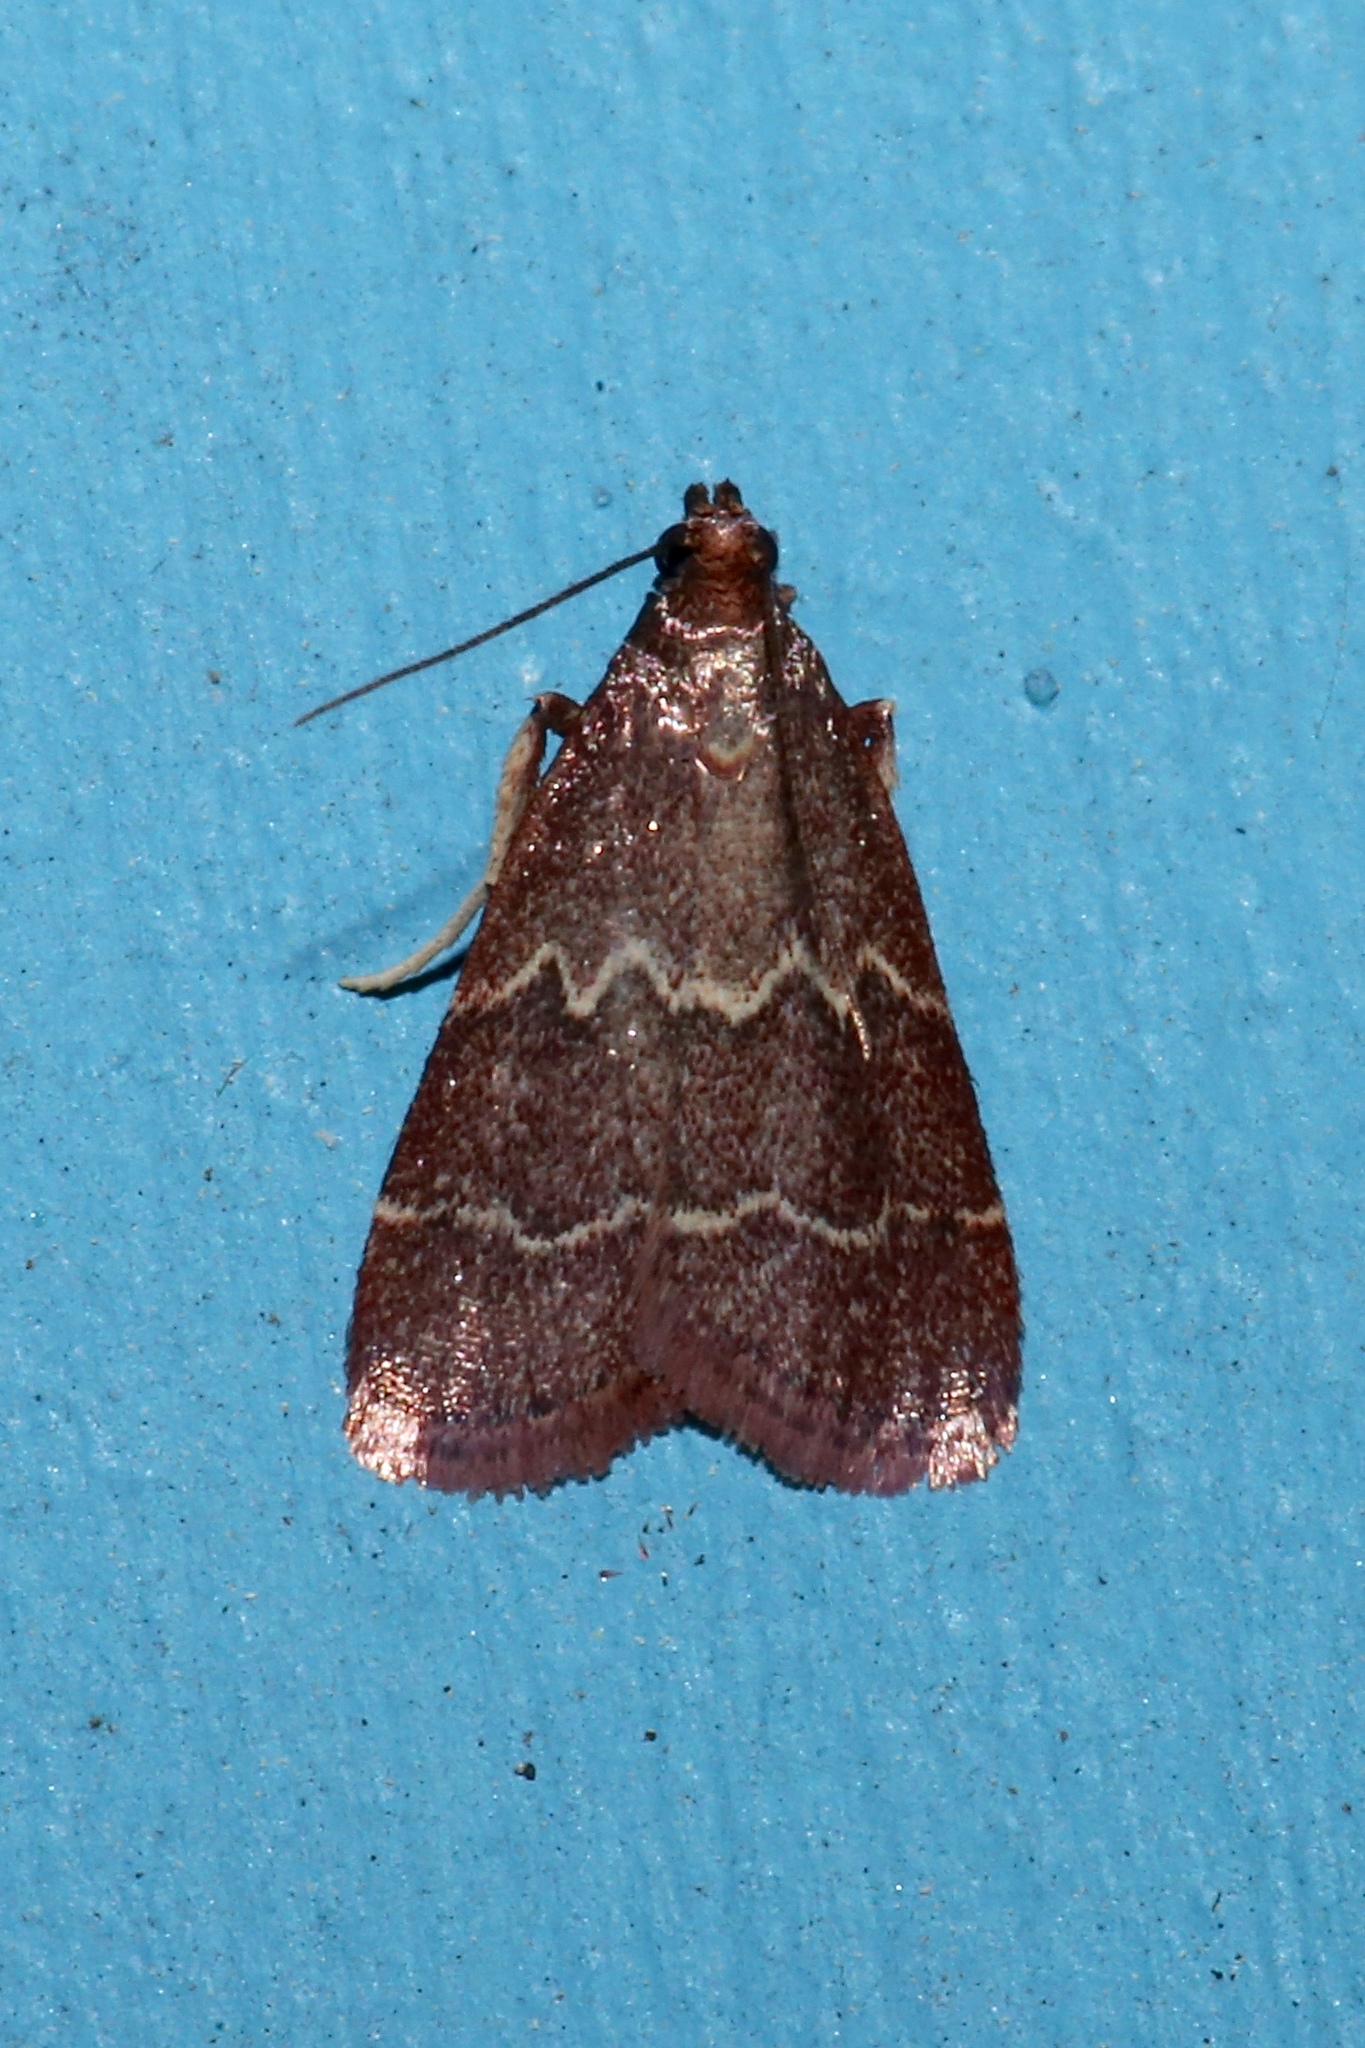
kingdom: Animalia
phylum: Arthropoda
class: Insecta
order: Lepidoptera
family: Pyralidae
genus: Arta
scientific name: Arta
